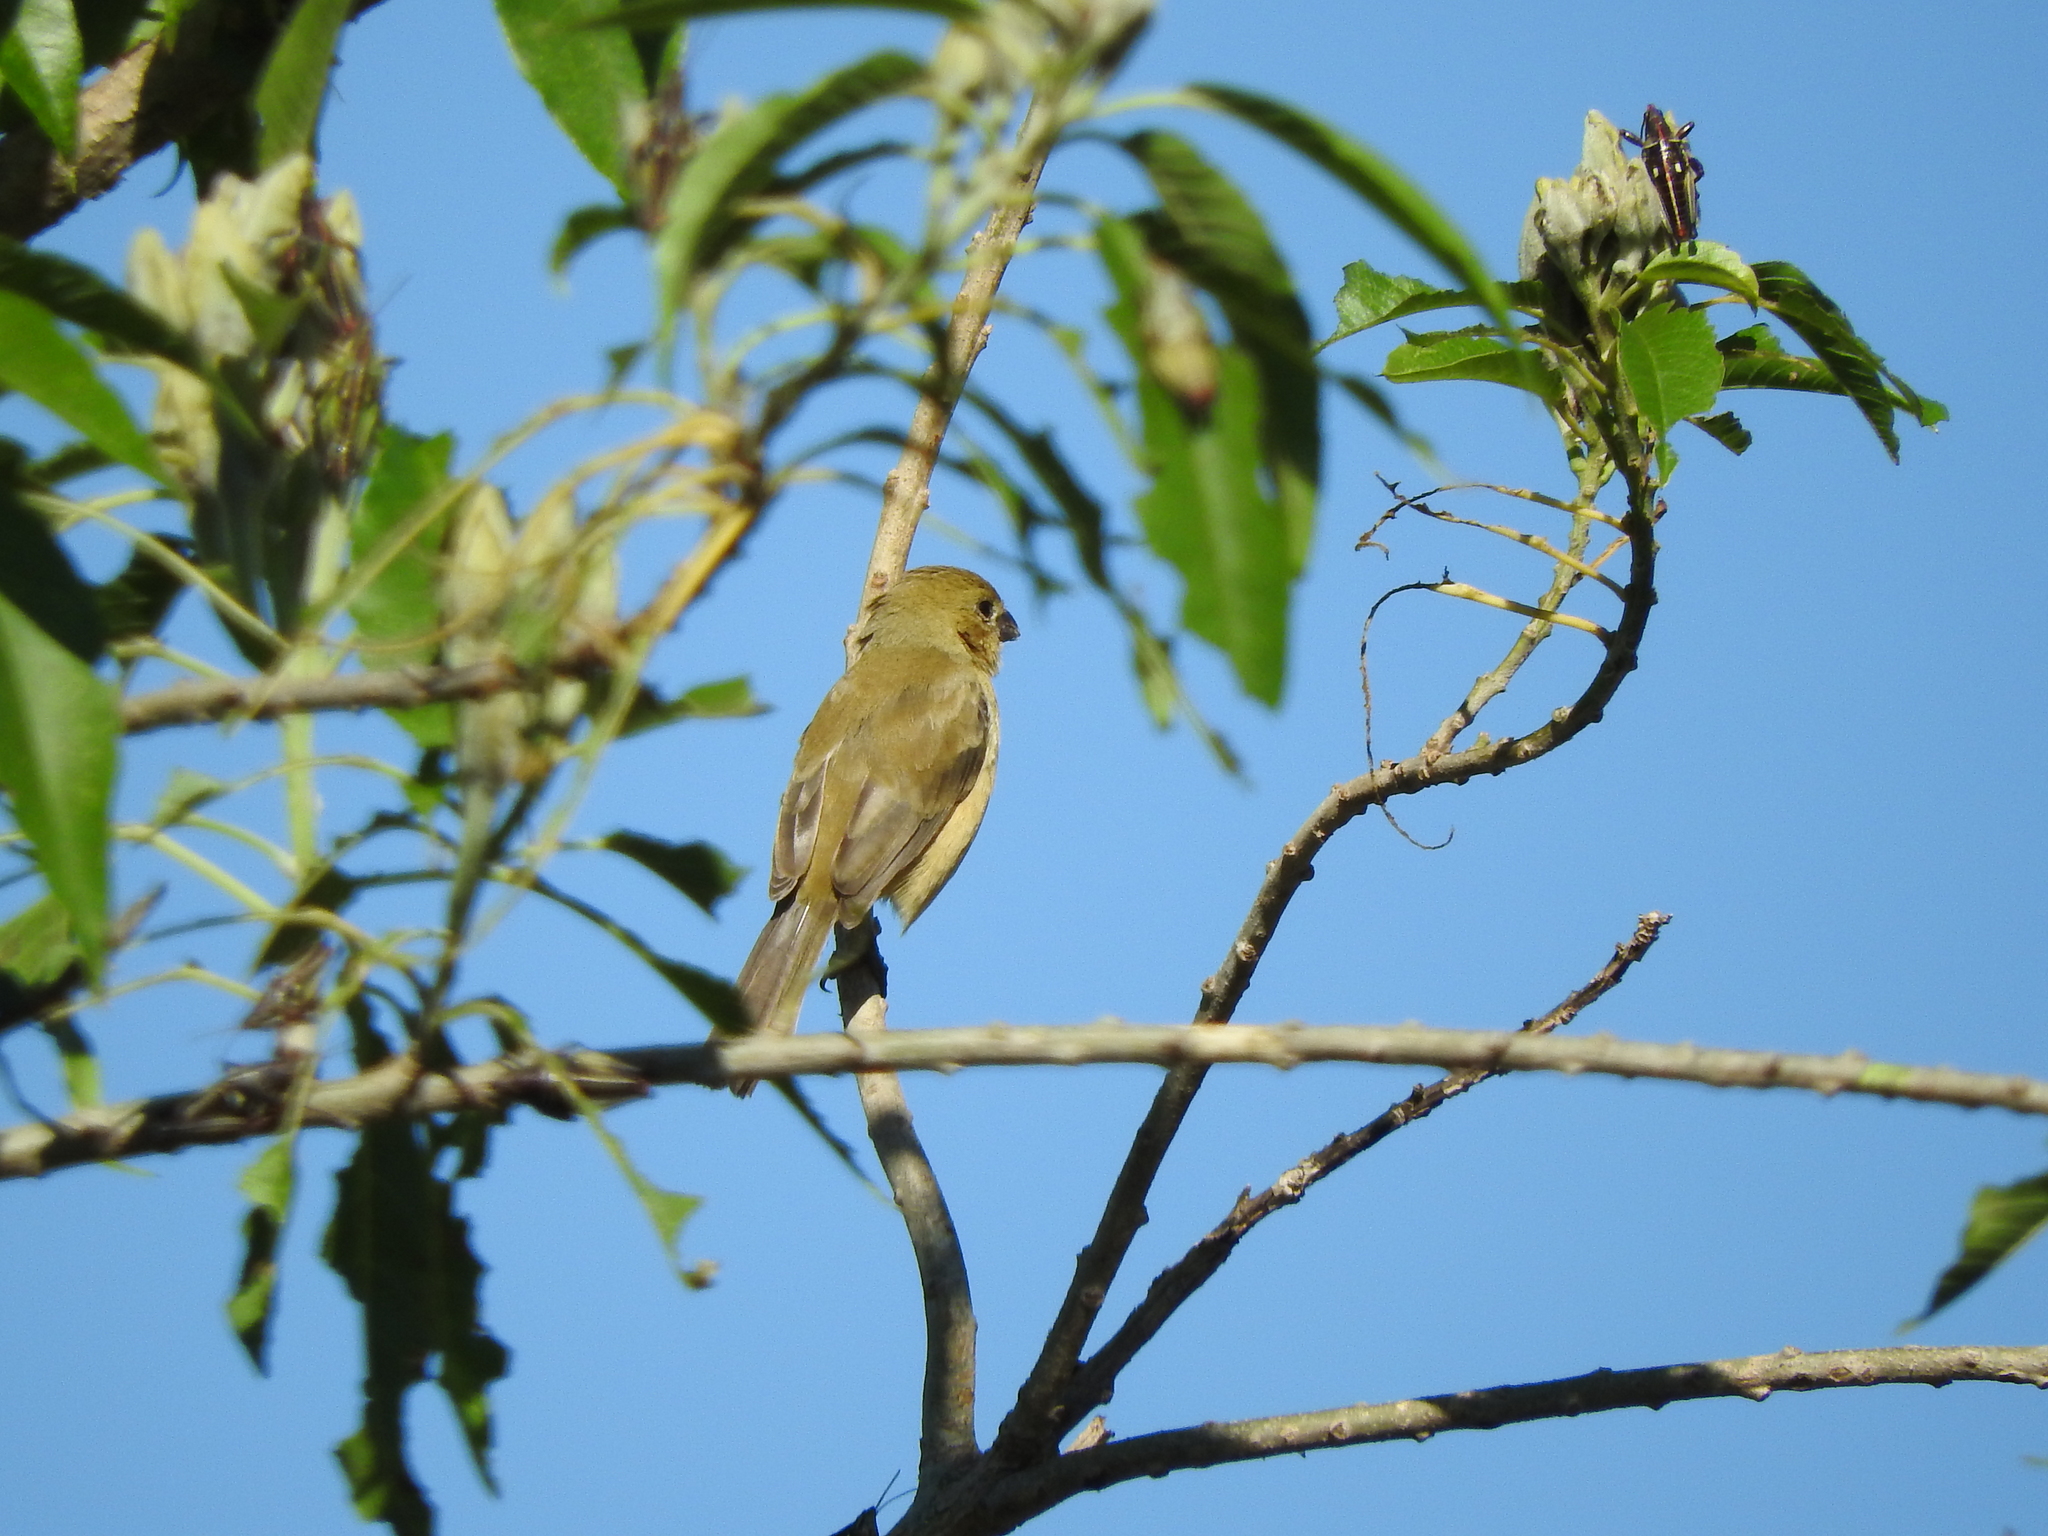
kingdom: Animalia
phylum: Chordata
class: Aves
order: Passeriformes
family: Thraupidae
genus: Sporophila
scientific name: Sporophila torqueola
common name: White-collared seedeater
